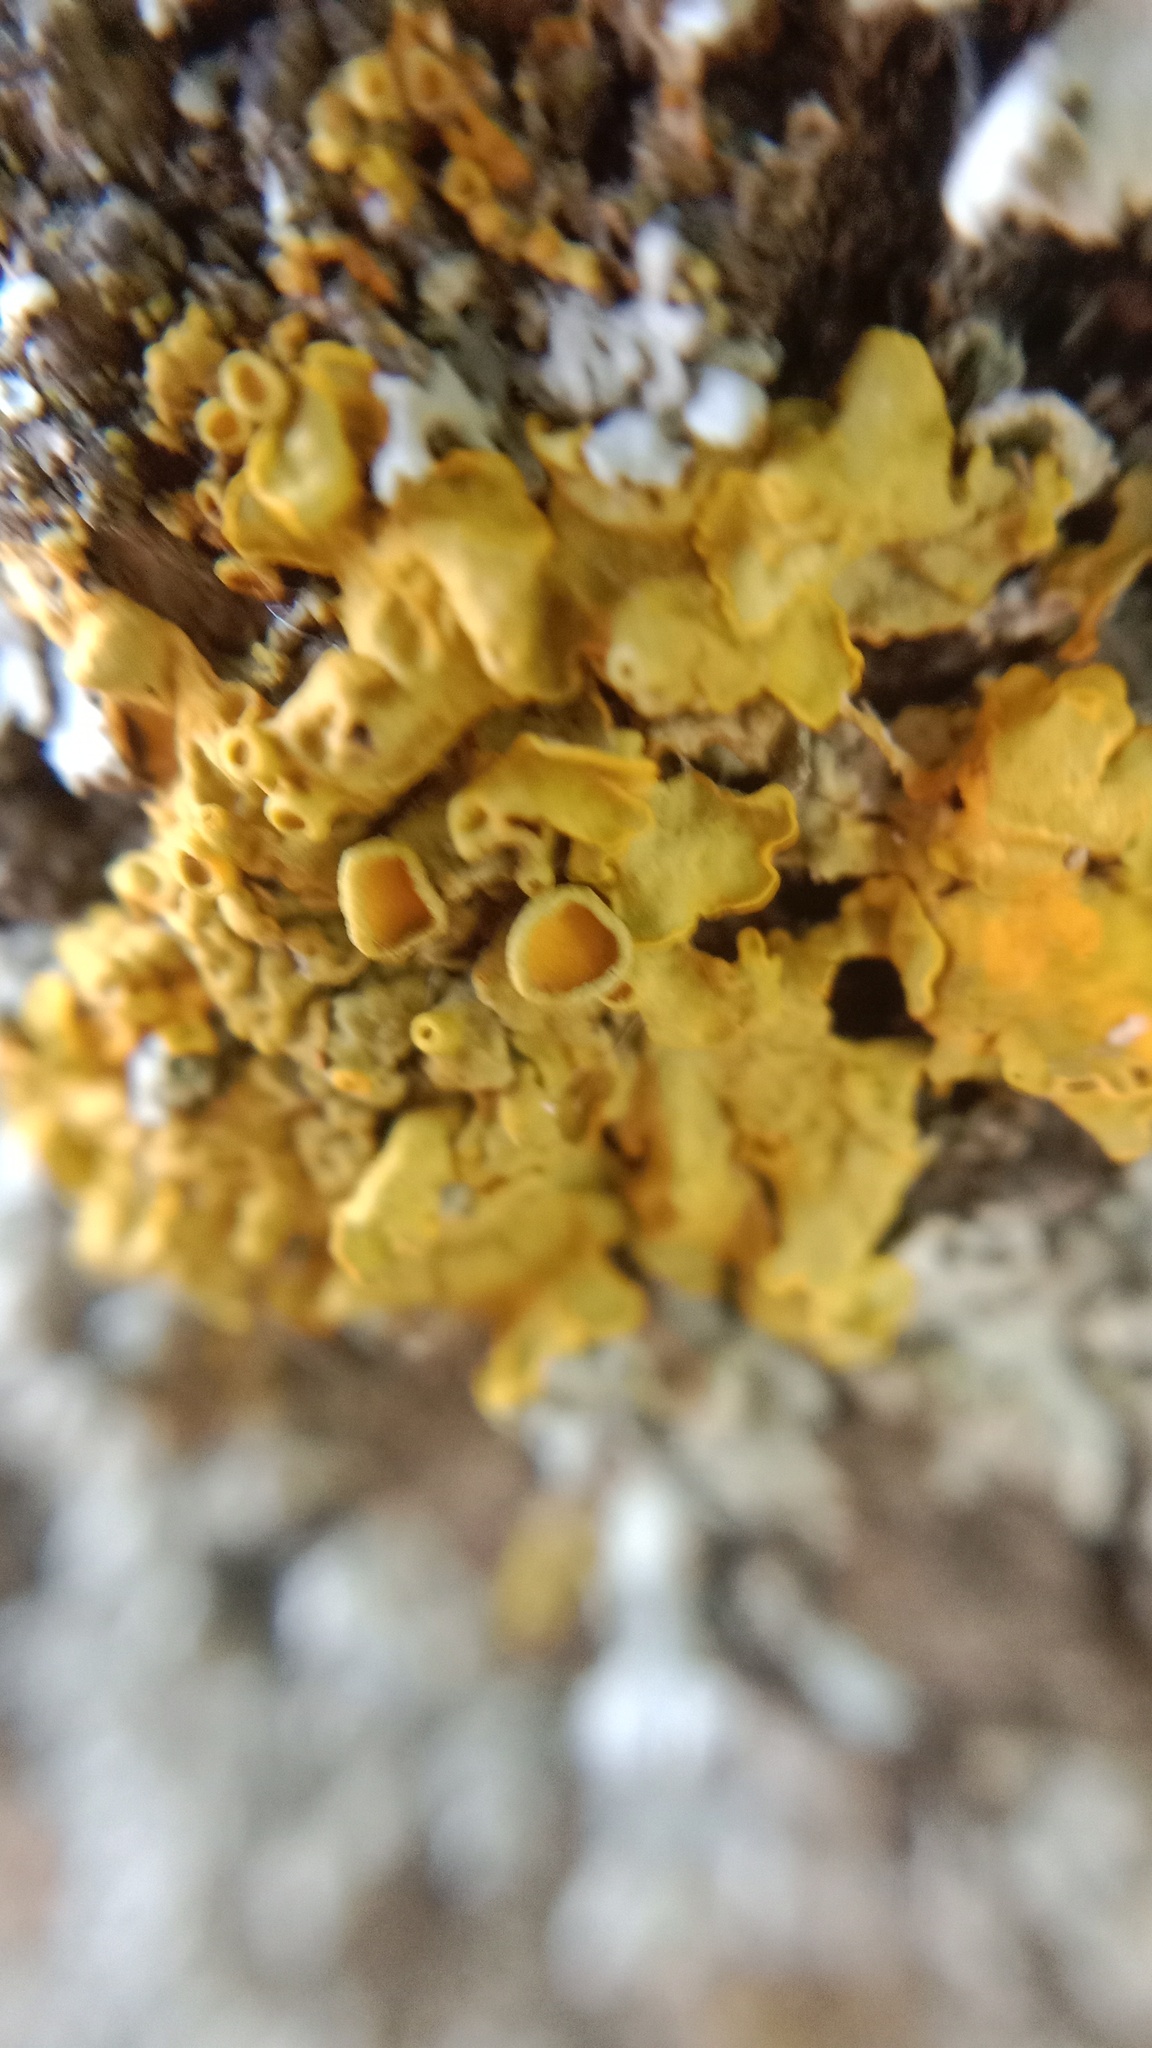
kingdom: Fungi
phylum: Ascomycota
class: Lecanoromycetes
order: Teloschistales
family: Teloschistaceae
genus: Xanthoria
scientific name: Xanthoria parietina
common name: Common orange lichen
